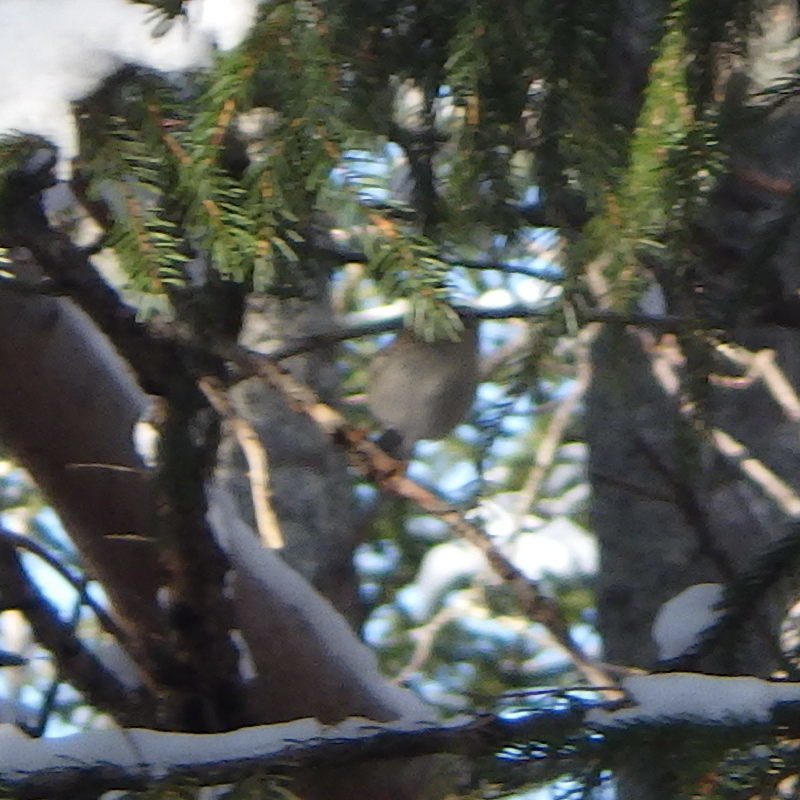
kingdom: Animalia
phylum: Chordata
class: Aves
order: Passeriformes
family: Regulidae
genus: Regulus
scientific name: Regulus satrapa
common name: Golden-crowned kinglet
